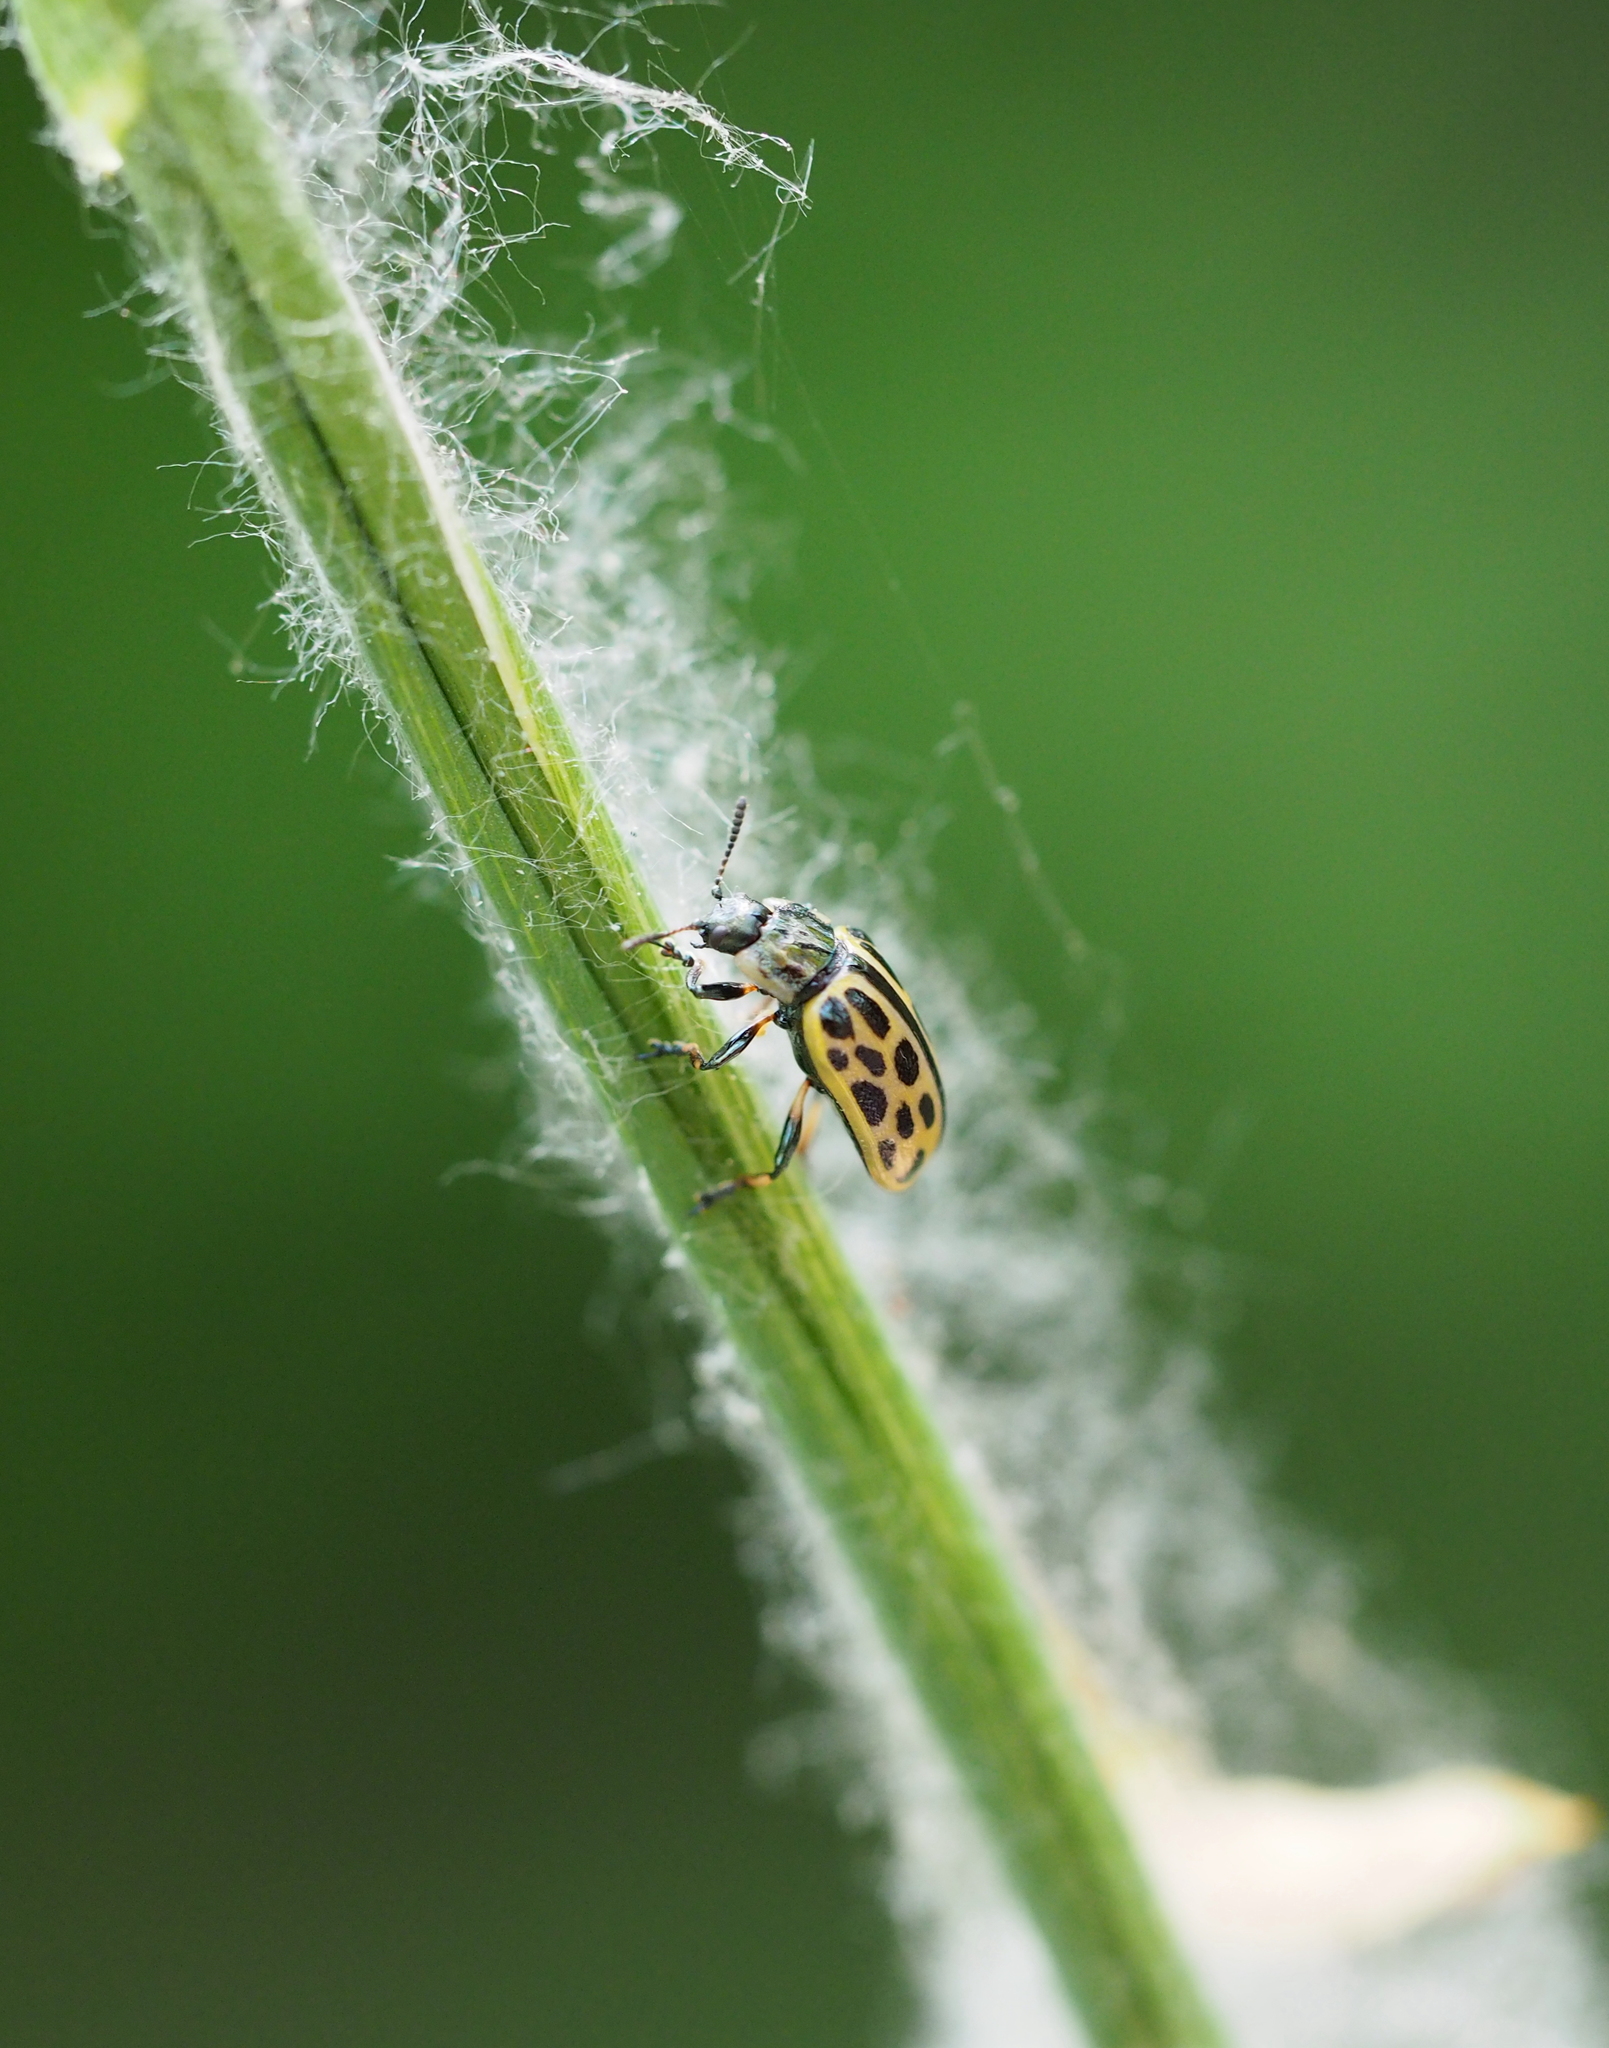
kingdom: Animalia
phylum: Arthropoda
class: Insecta
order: Coleoptera
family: Chrysomelidae
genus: Chrysomela
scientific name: Chrysomela vigintipunctata
